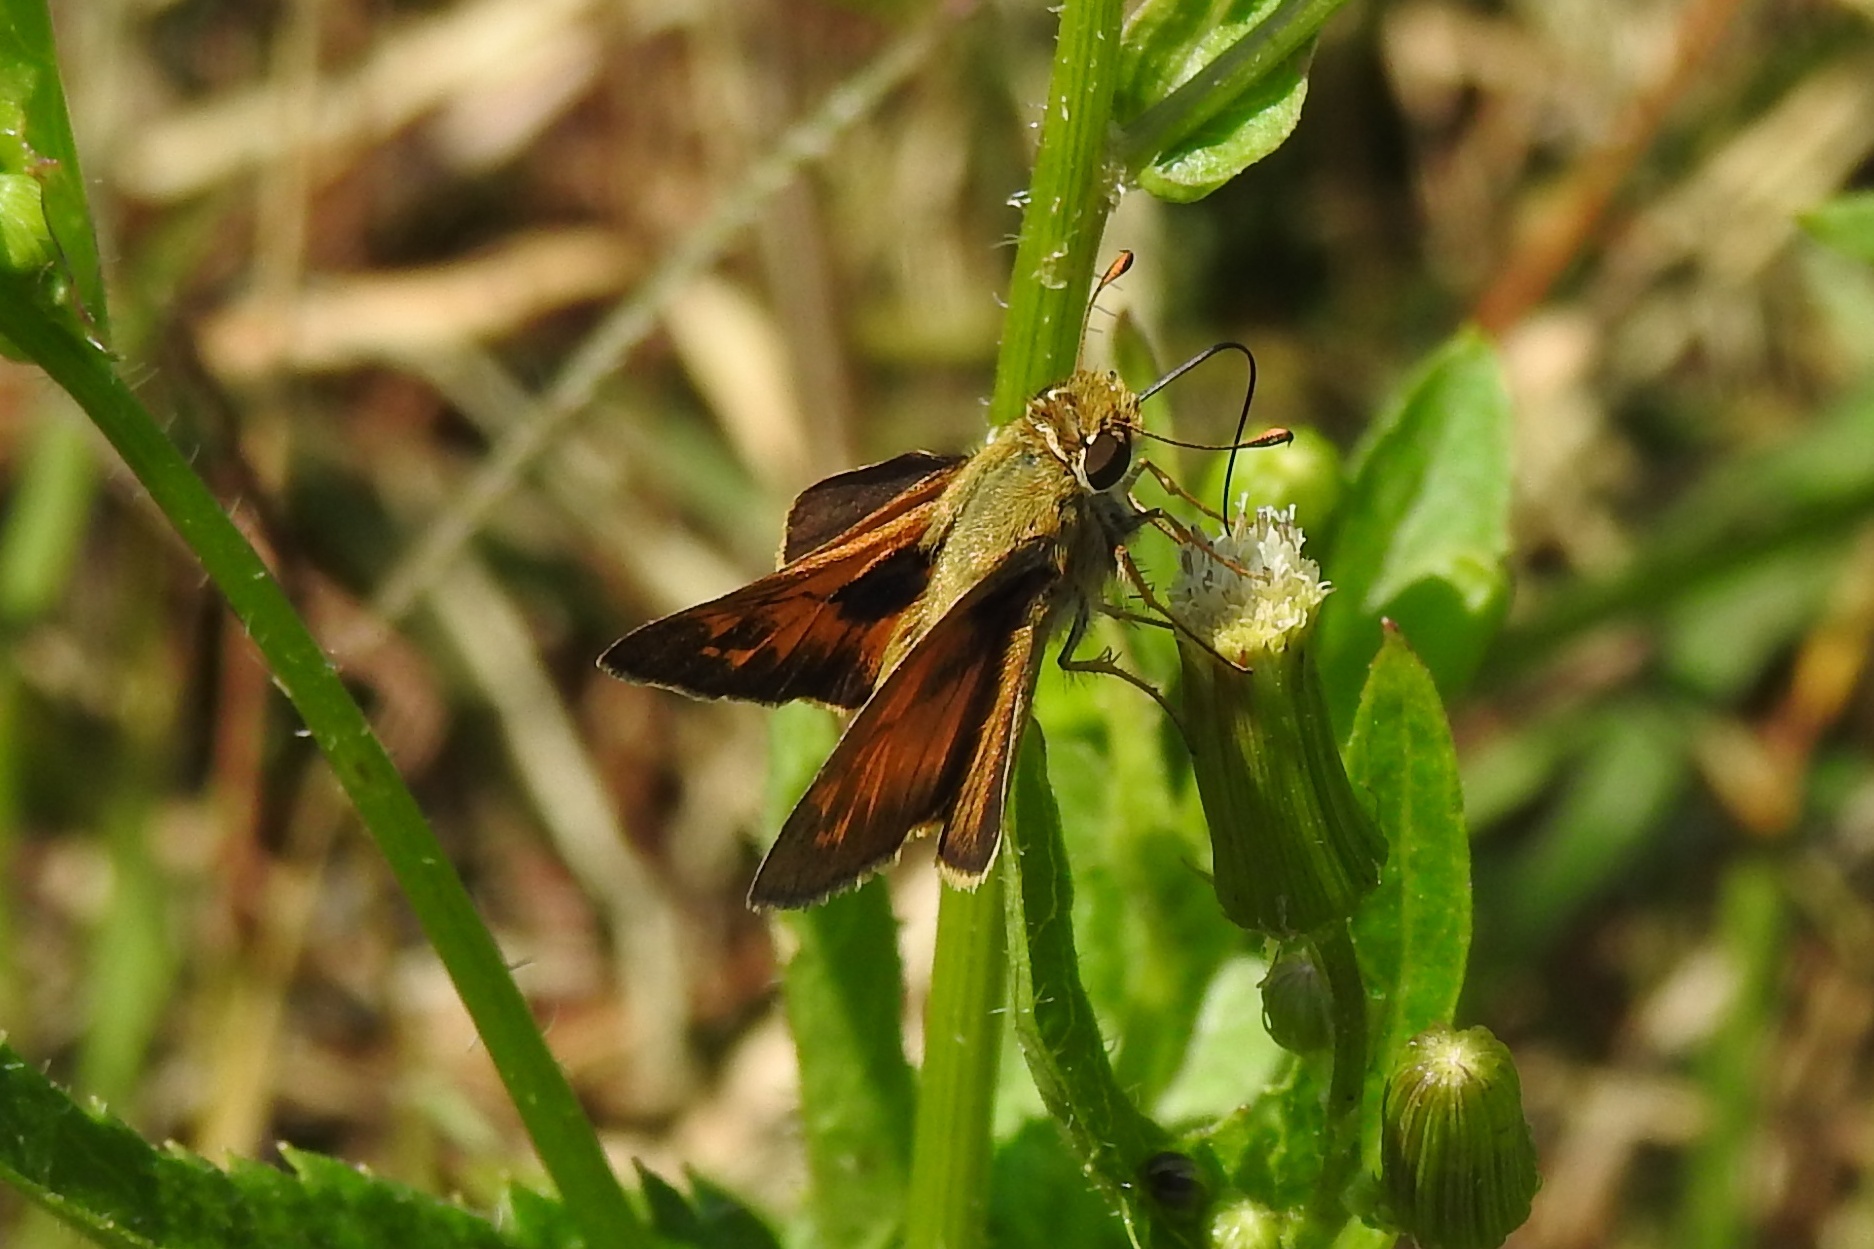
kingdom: Animalia
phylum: Arthropoda
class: Insecta
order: Lepidoptera
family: Hesperiidae
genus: Atalopedes
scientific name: Atalopedes
